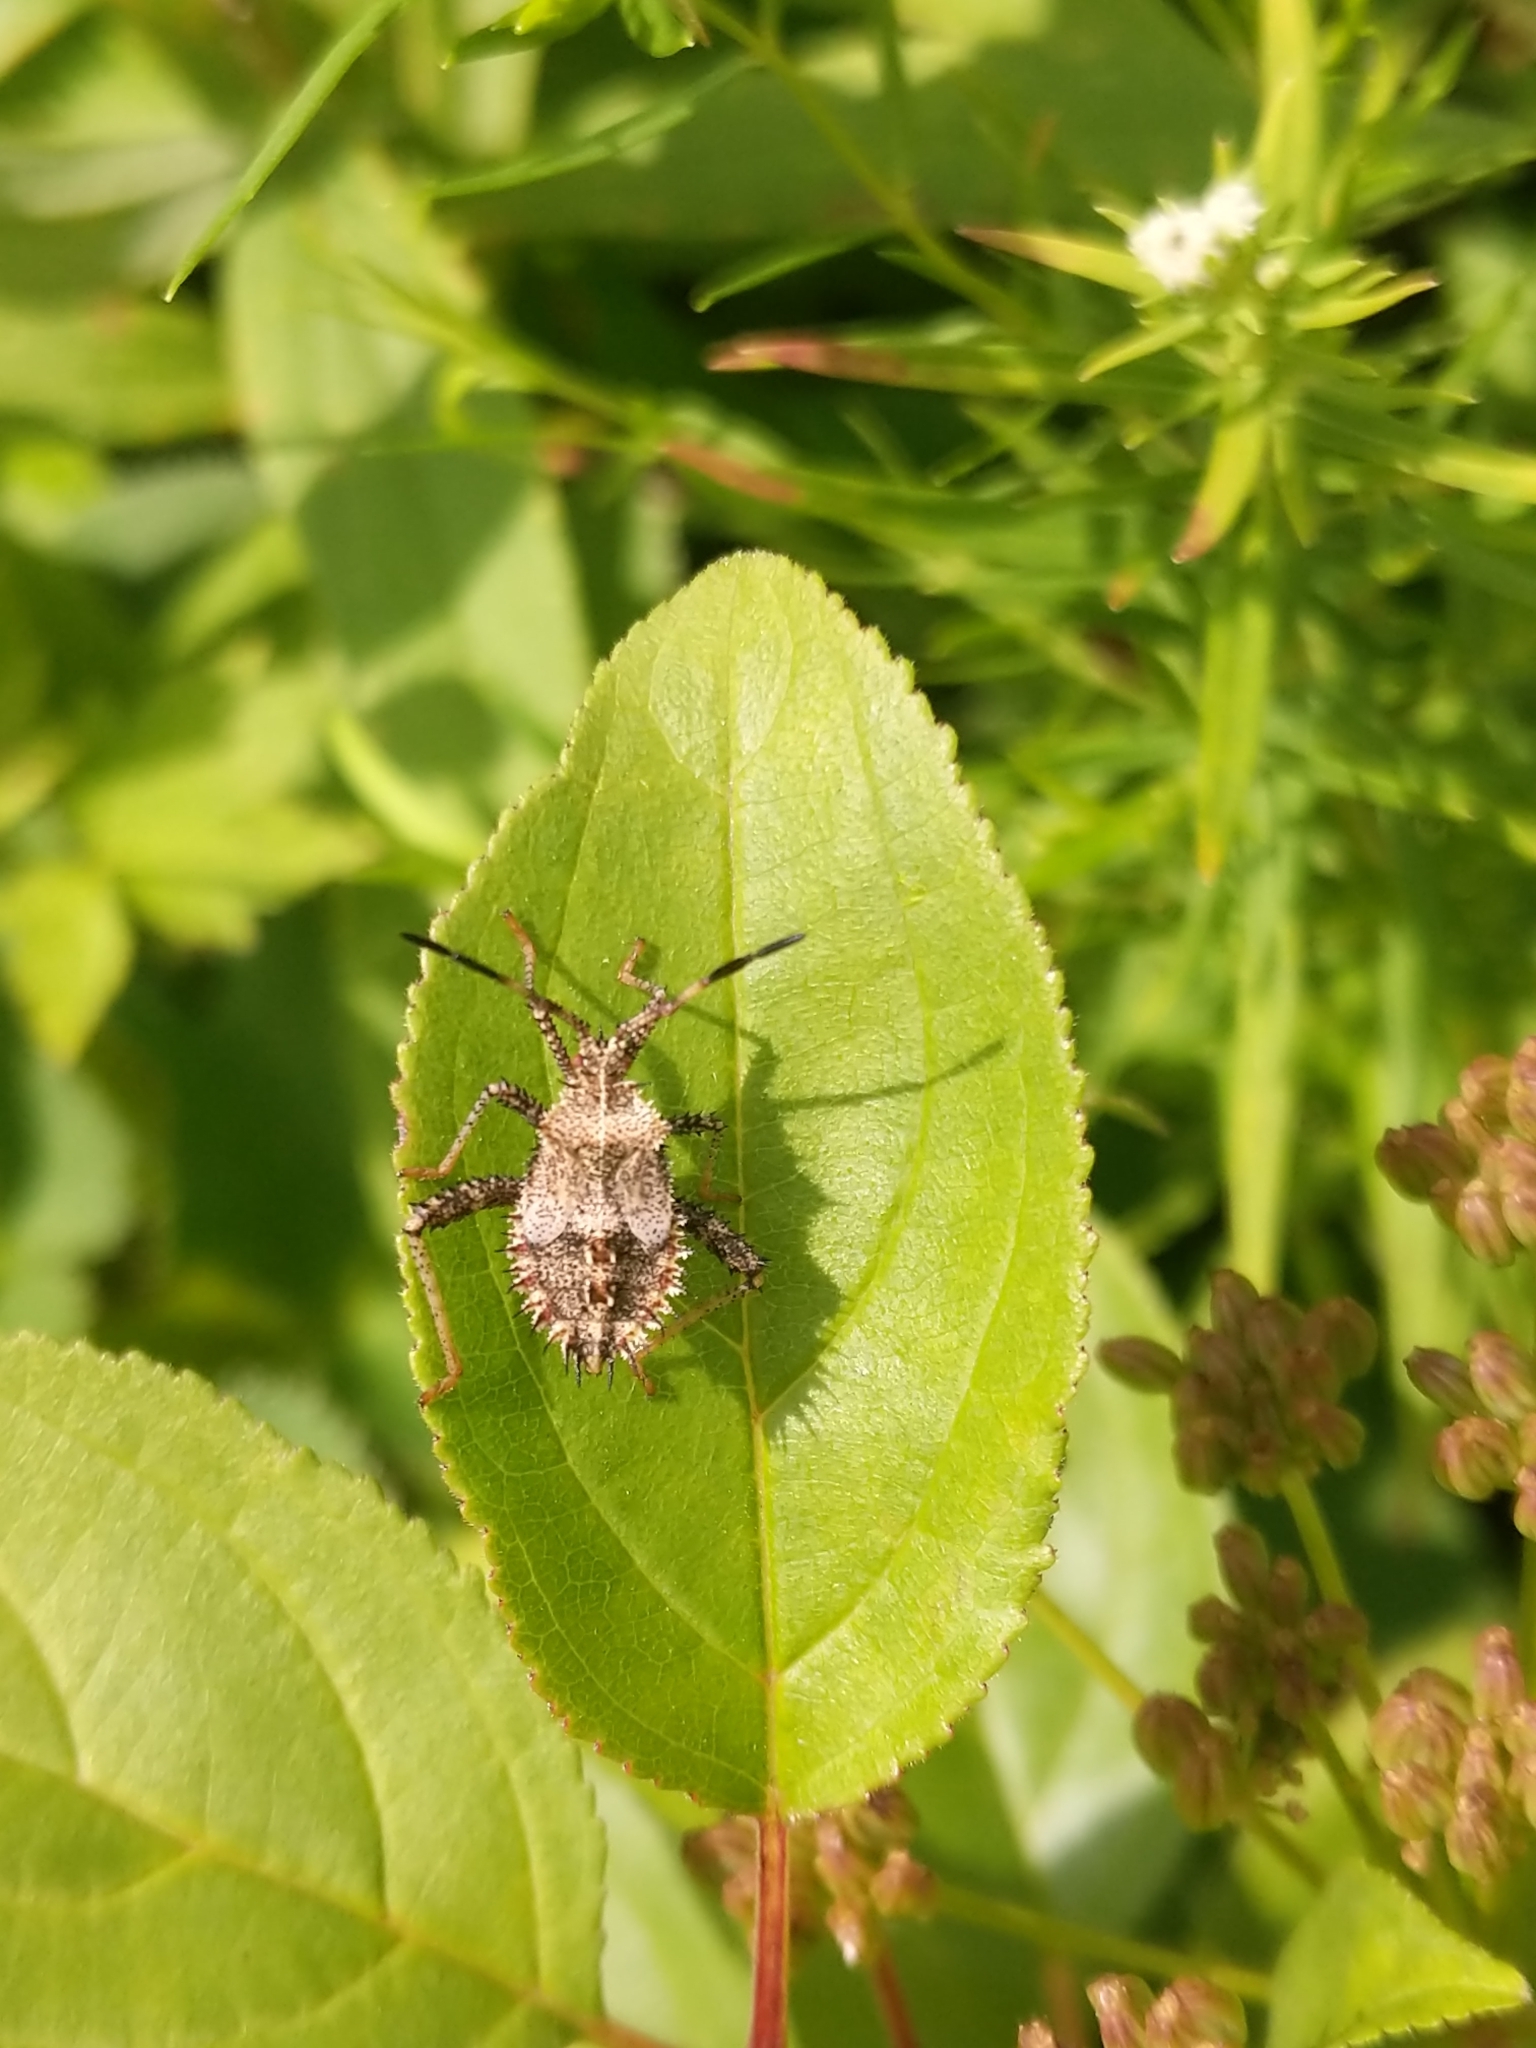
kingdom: Animalia
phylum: Arthropoda
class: Insecta
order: Hemiptera
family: Coreidae
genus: Euthochtha
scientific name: Euthochtha galeator
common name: Helmeted squash bug
